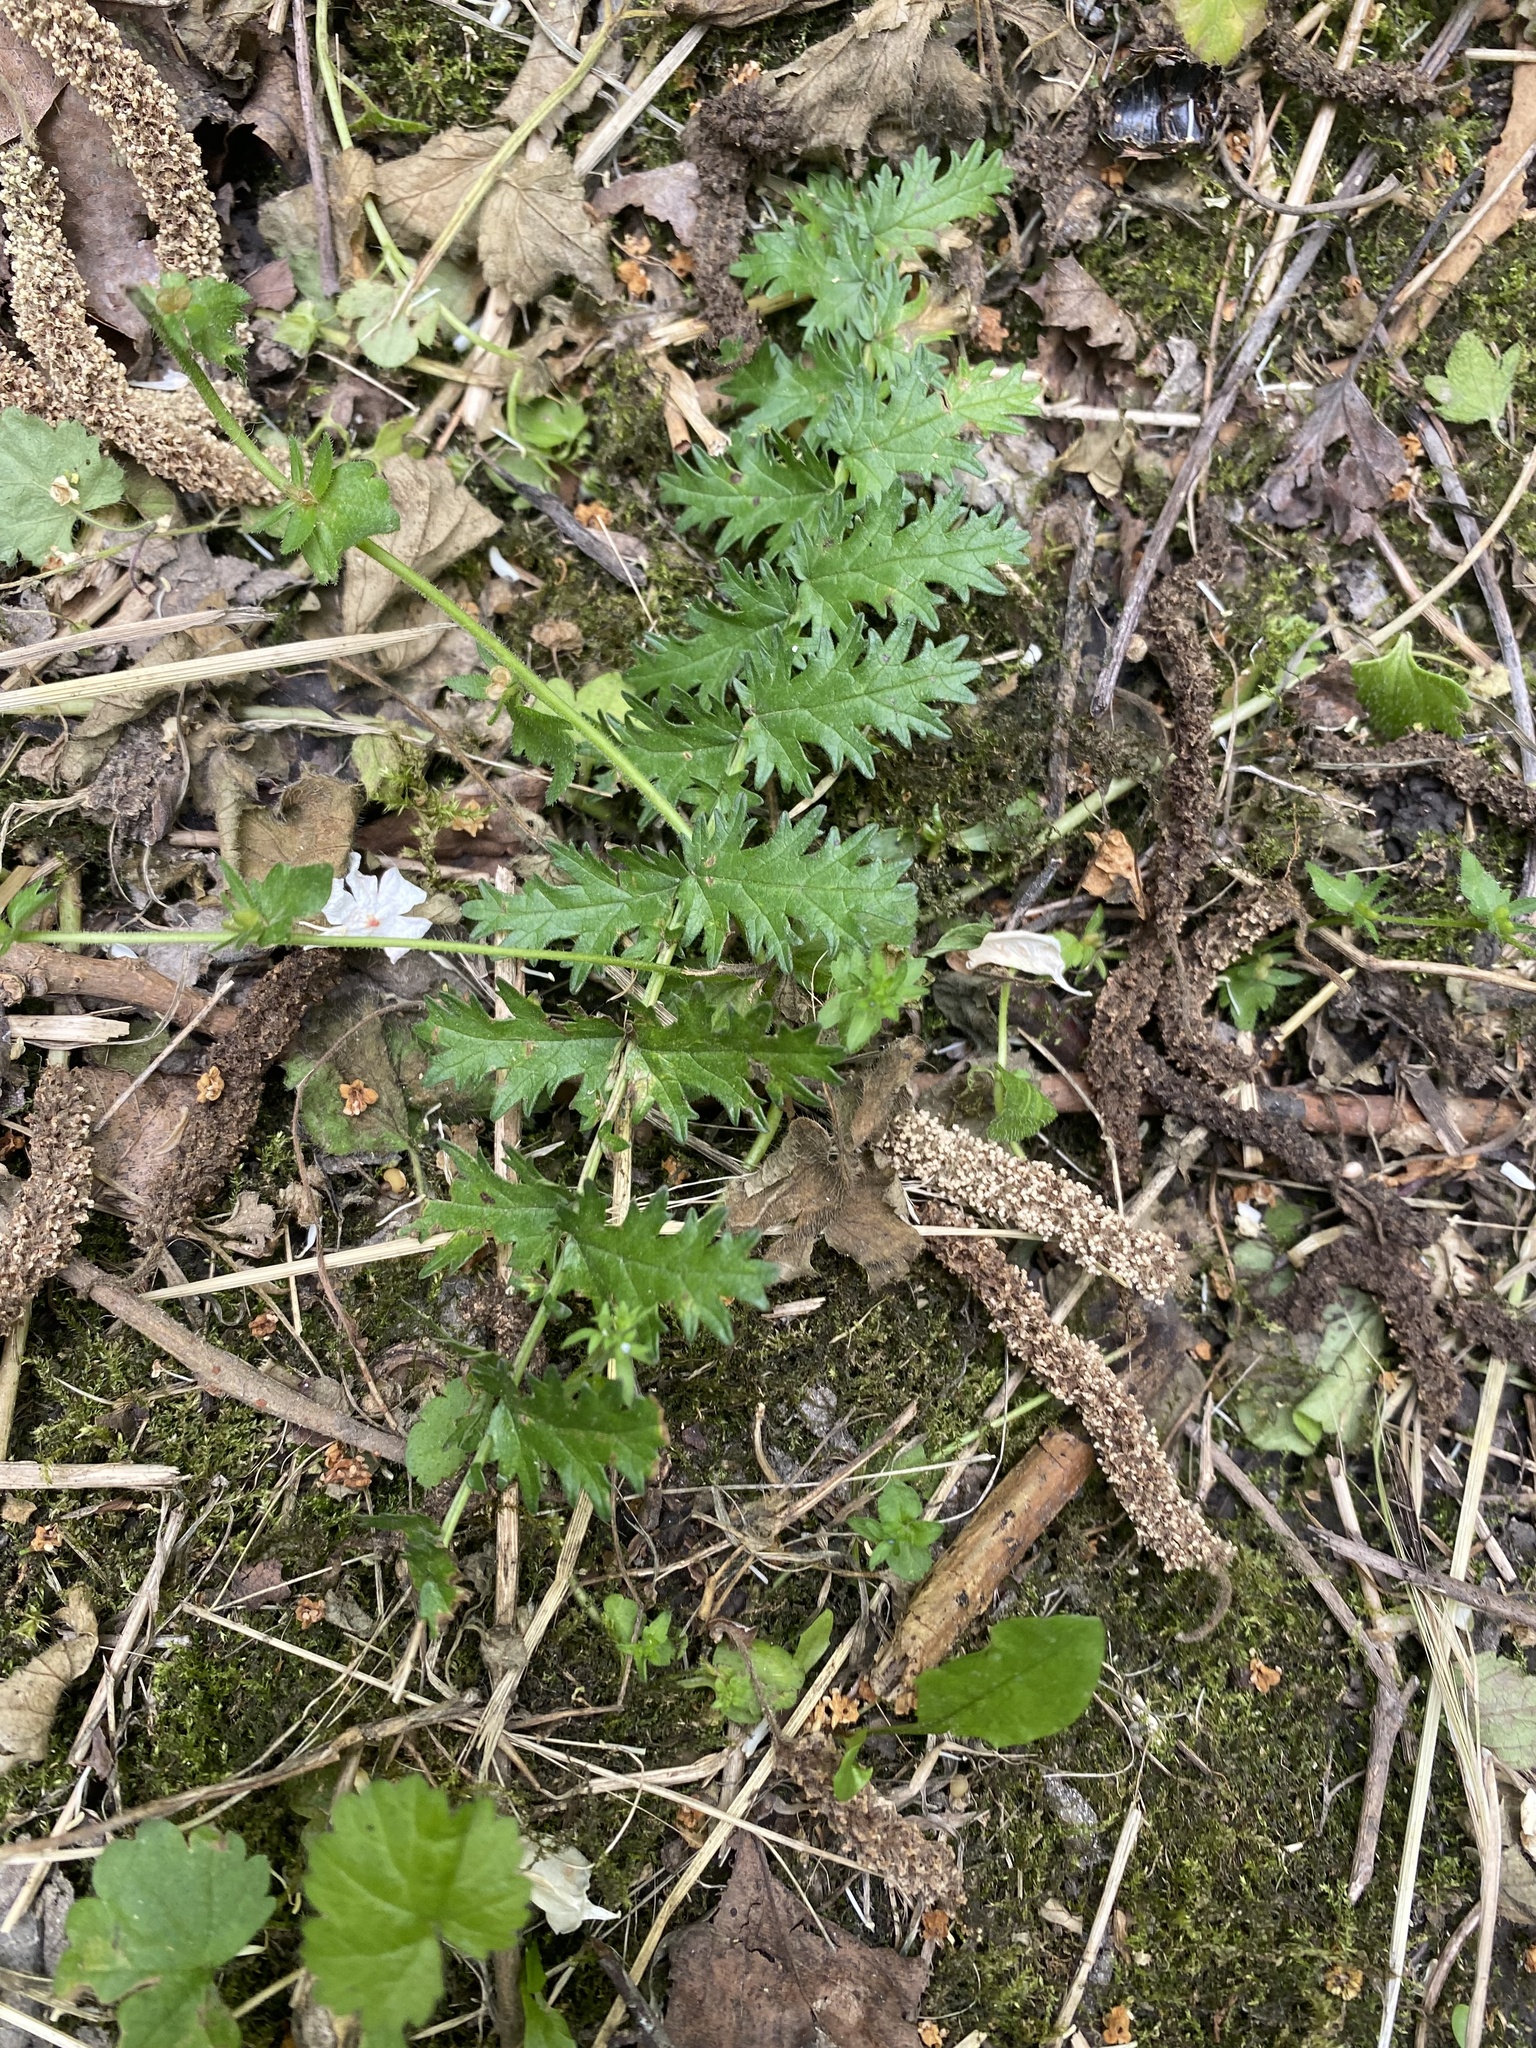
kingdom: Plantae
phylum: Tracheophyta
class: Magnoliopsida
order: Rosales
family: Rosaceae
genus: Filipendula
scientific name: Filipendula vulgaris
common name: Dropwort
